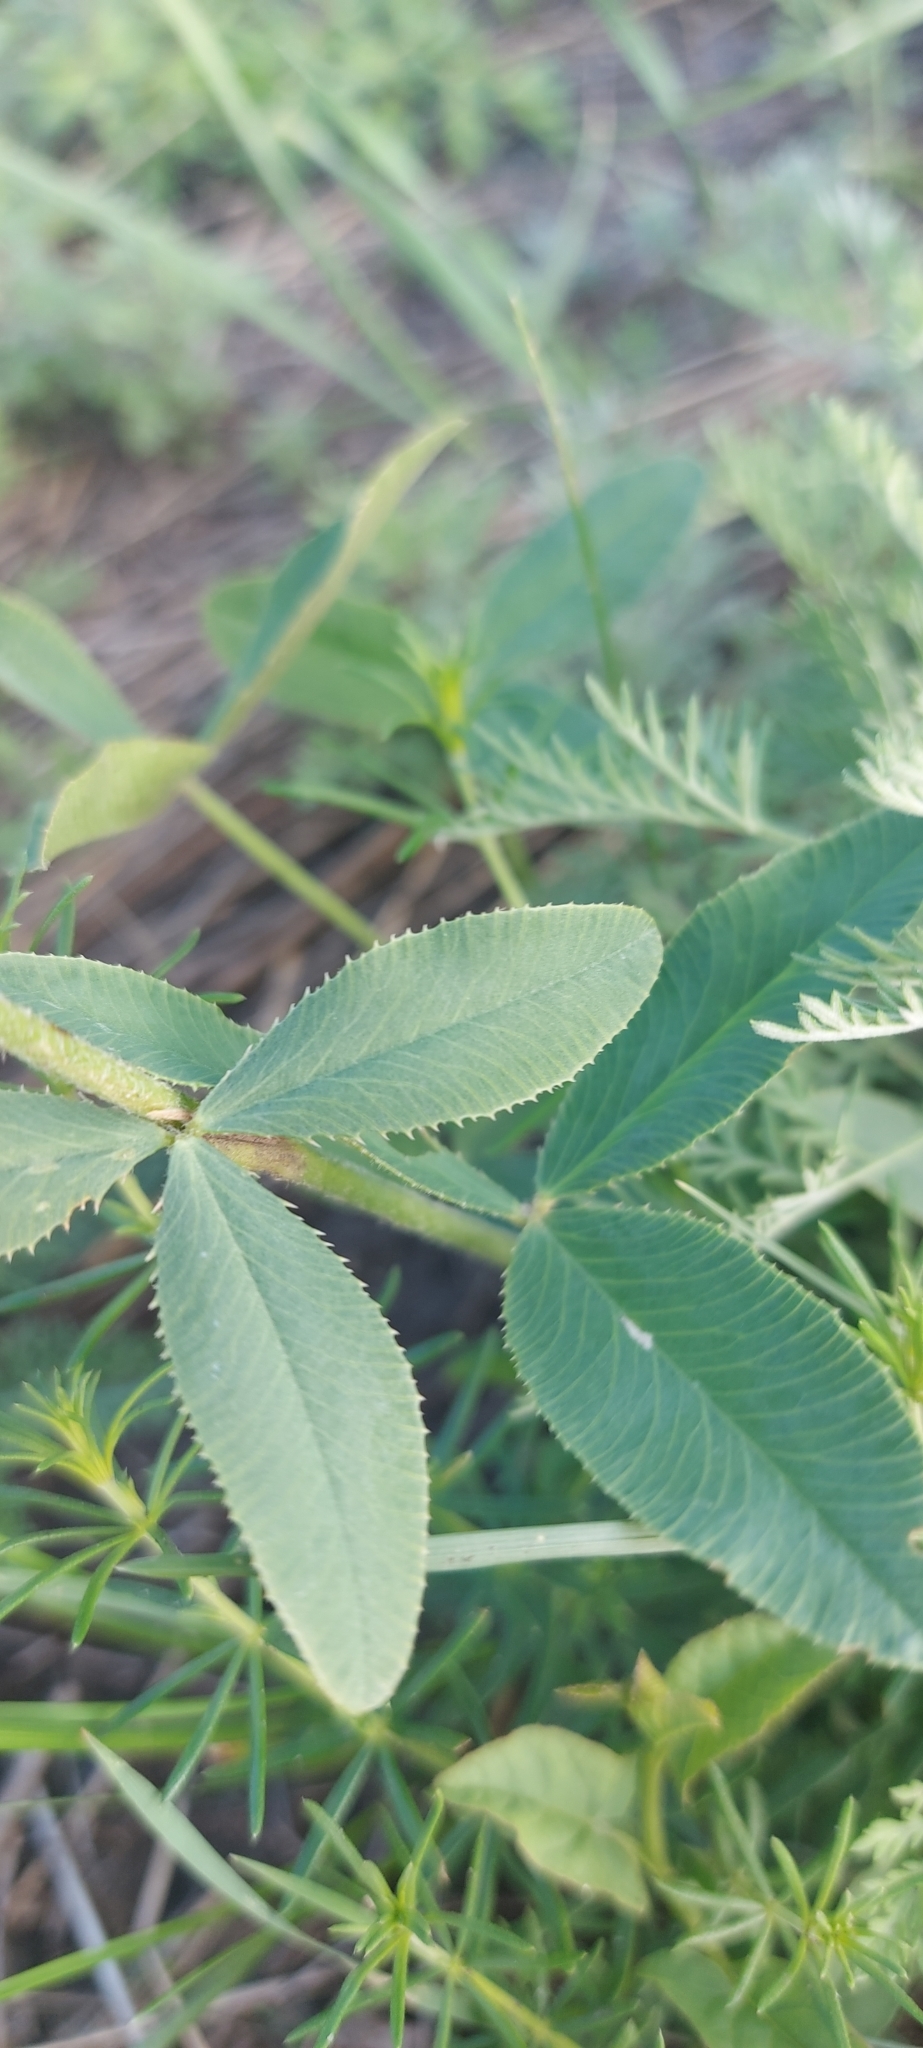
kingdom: Plantae
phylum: Tracheophyta
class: Magnoliopsida
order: Fabales
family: Fabaceae
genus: Trifolium
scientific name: Trifolium montanum
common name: Mountain clover
